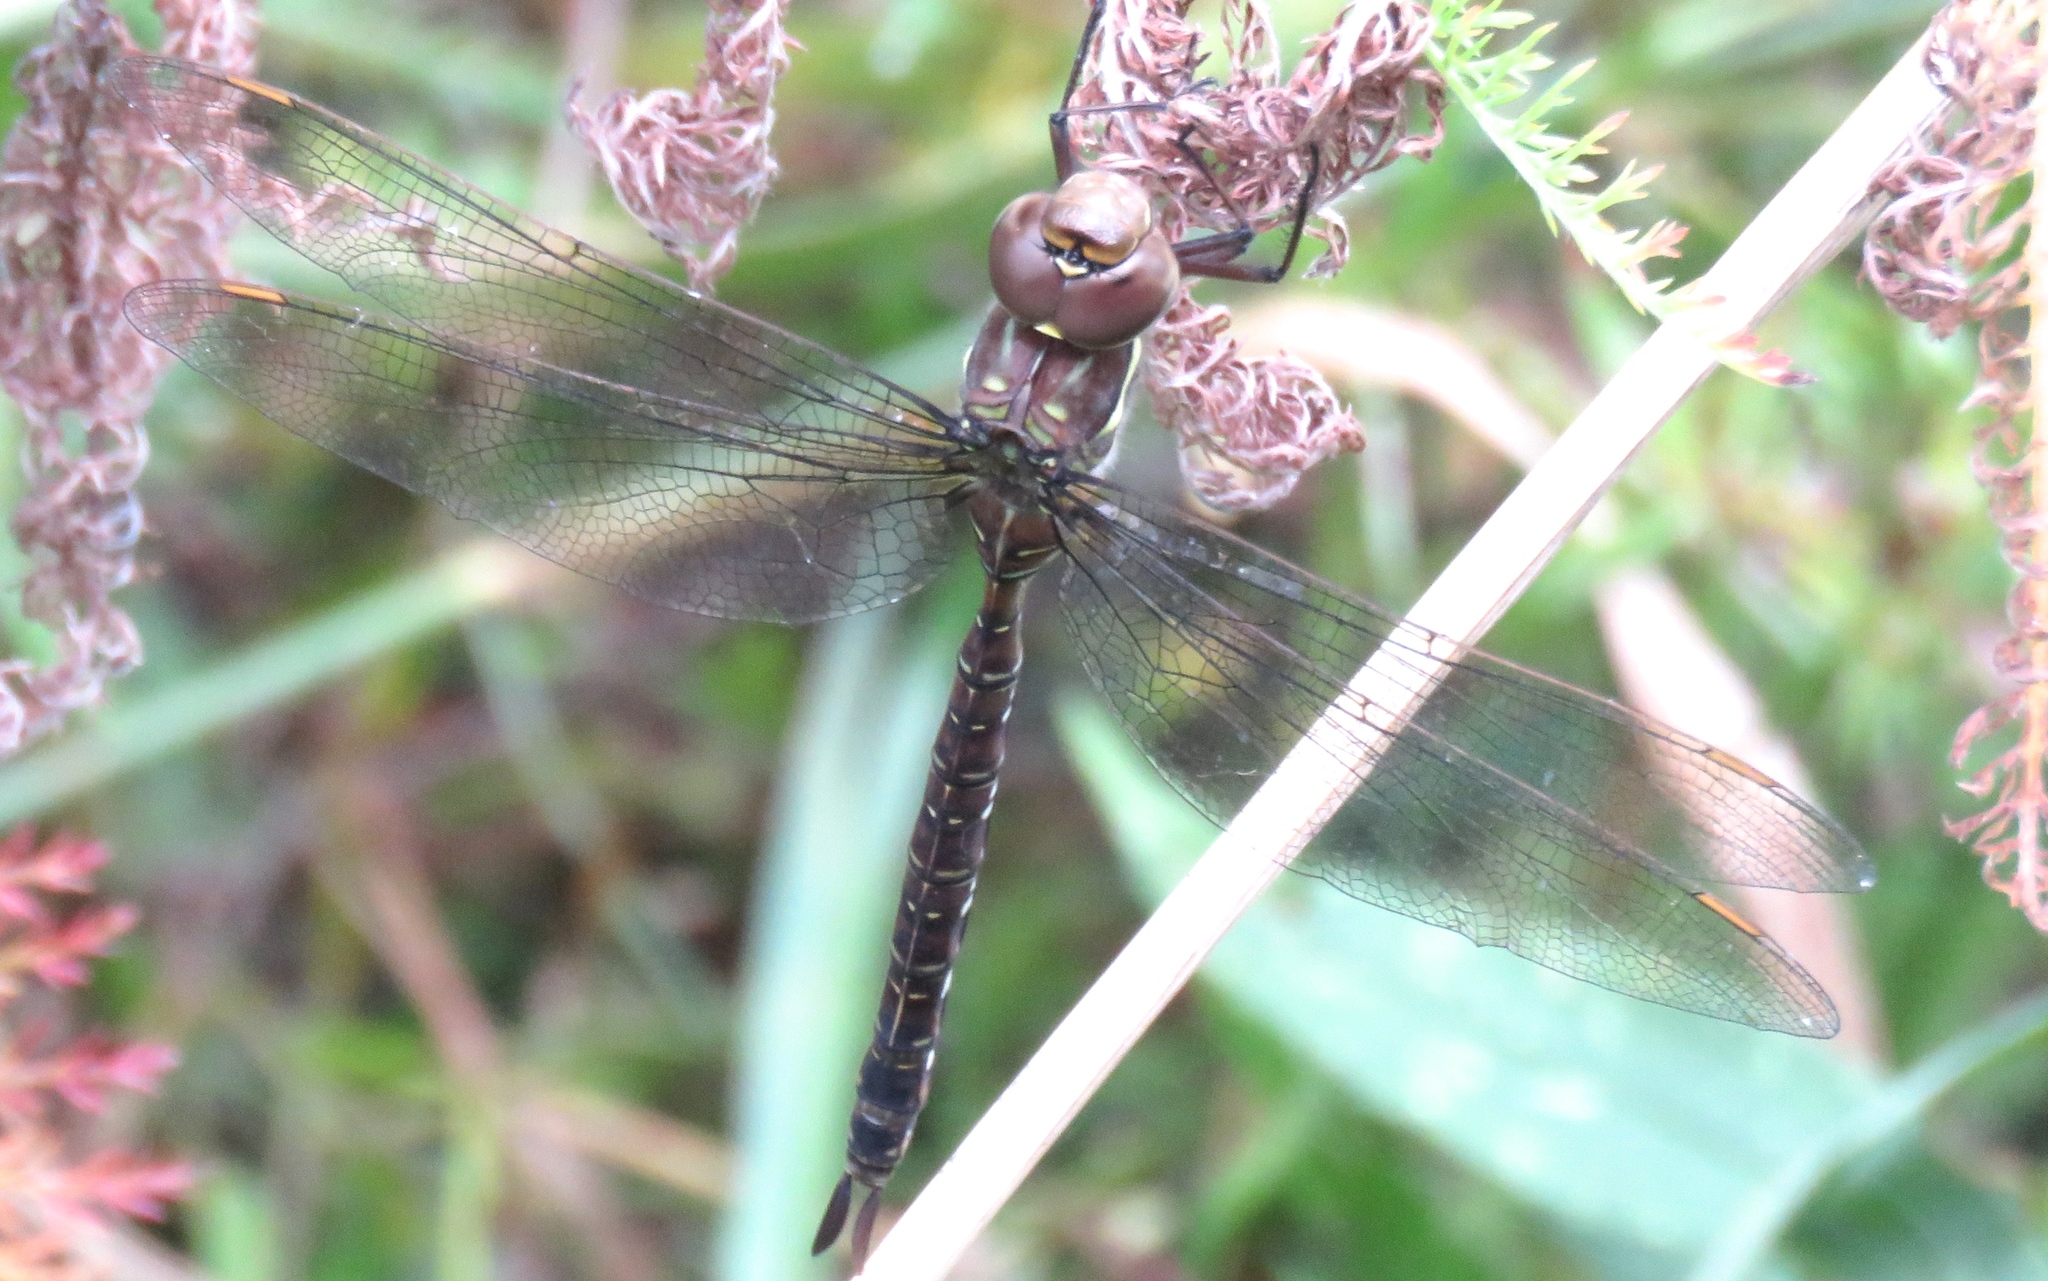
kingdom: Animalia
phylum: Arthropoda
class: Insecta
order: Odonata
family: Aeshnidae
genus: Aeshna
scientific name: Aeshna umbrosa
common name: Shadow darner
